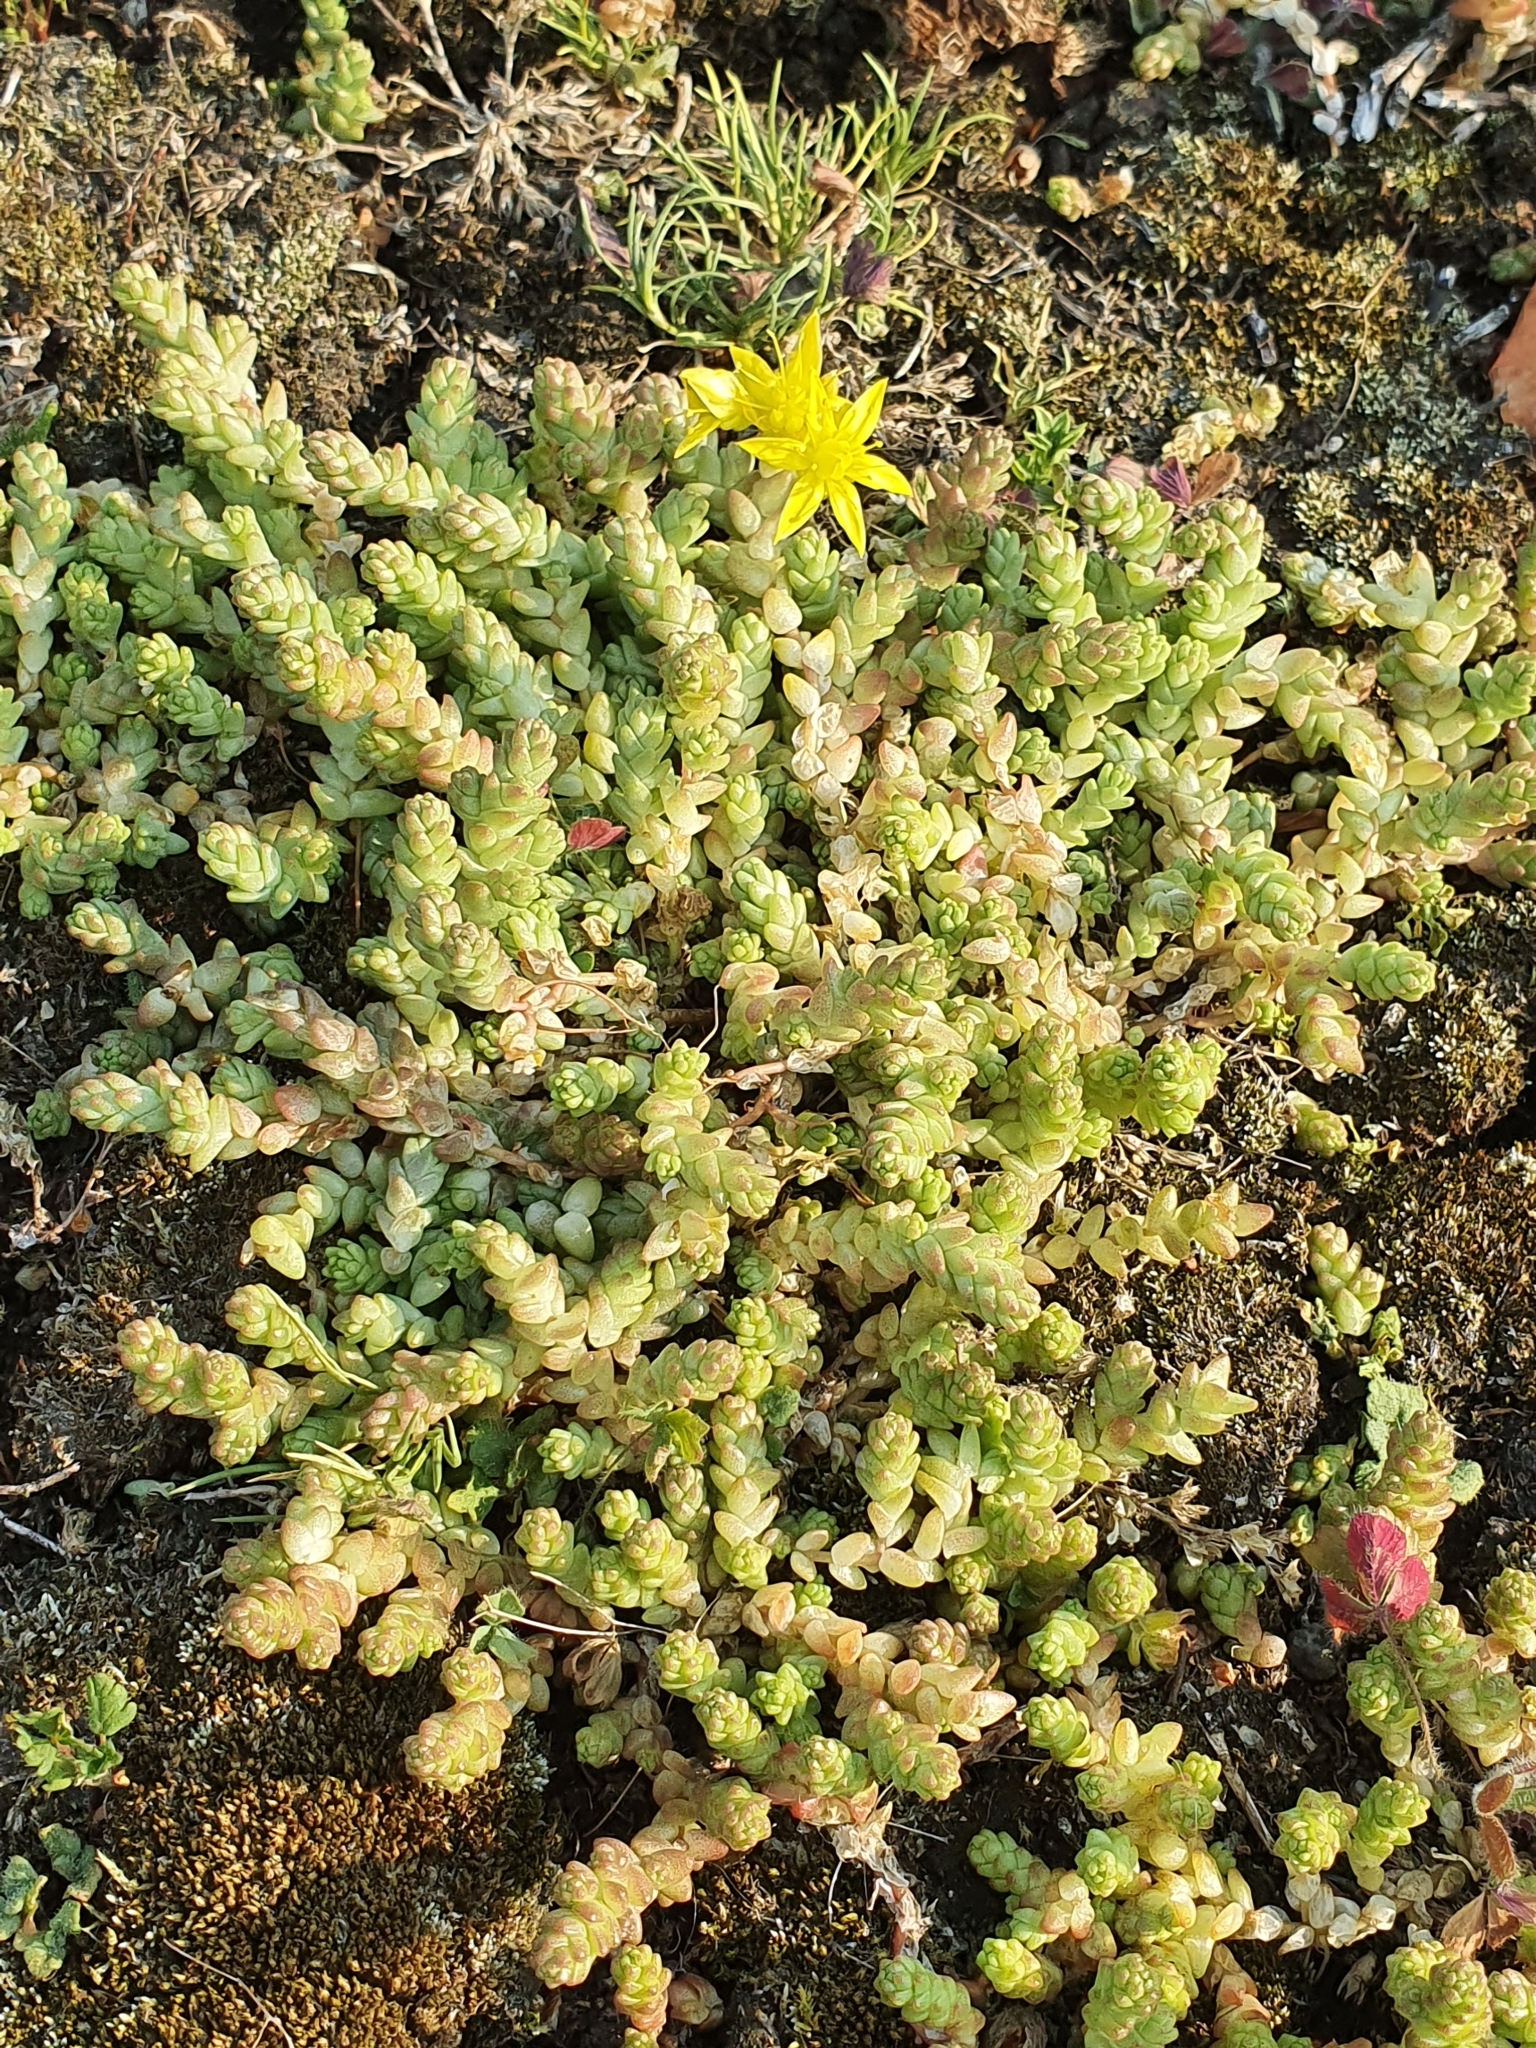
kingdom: Plantae
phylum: Tracheophyta
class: Magnoliopsida
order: Saxifragales
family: Crassulaceae
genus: Sedum
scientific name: Sedum acre
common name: Biting stonecrop
